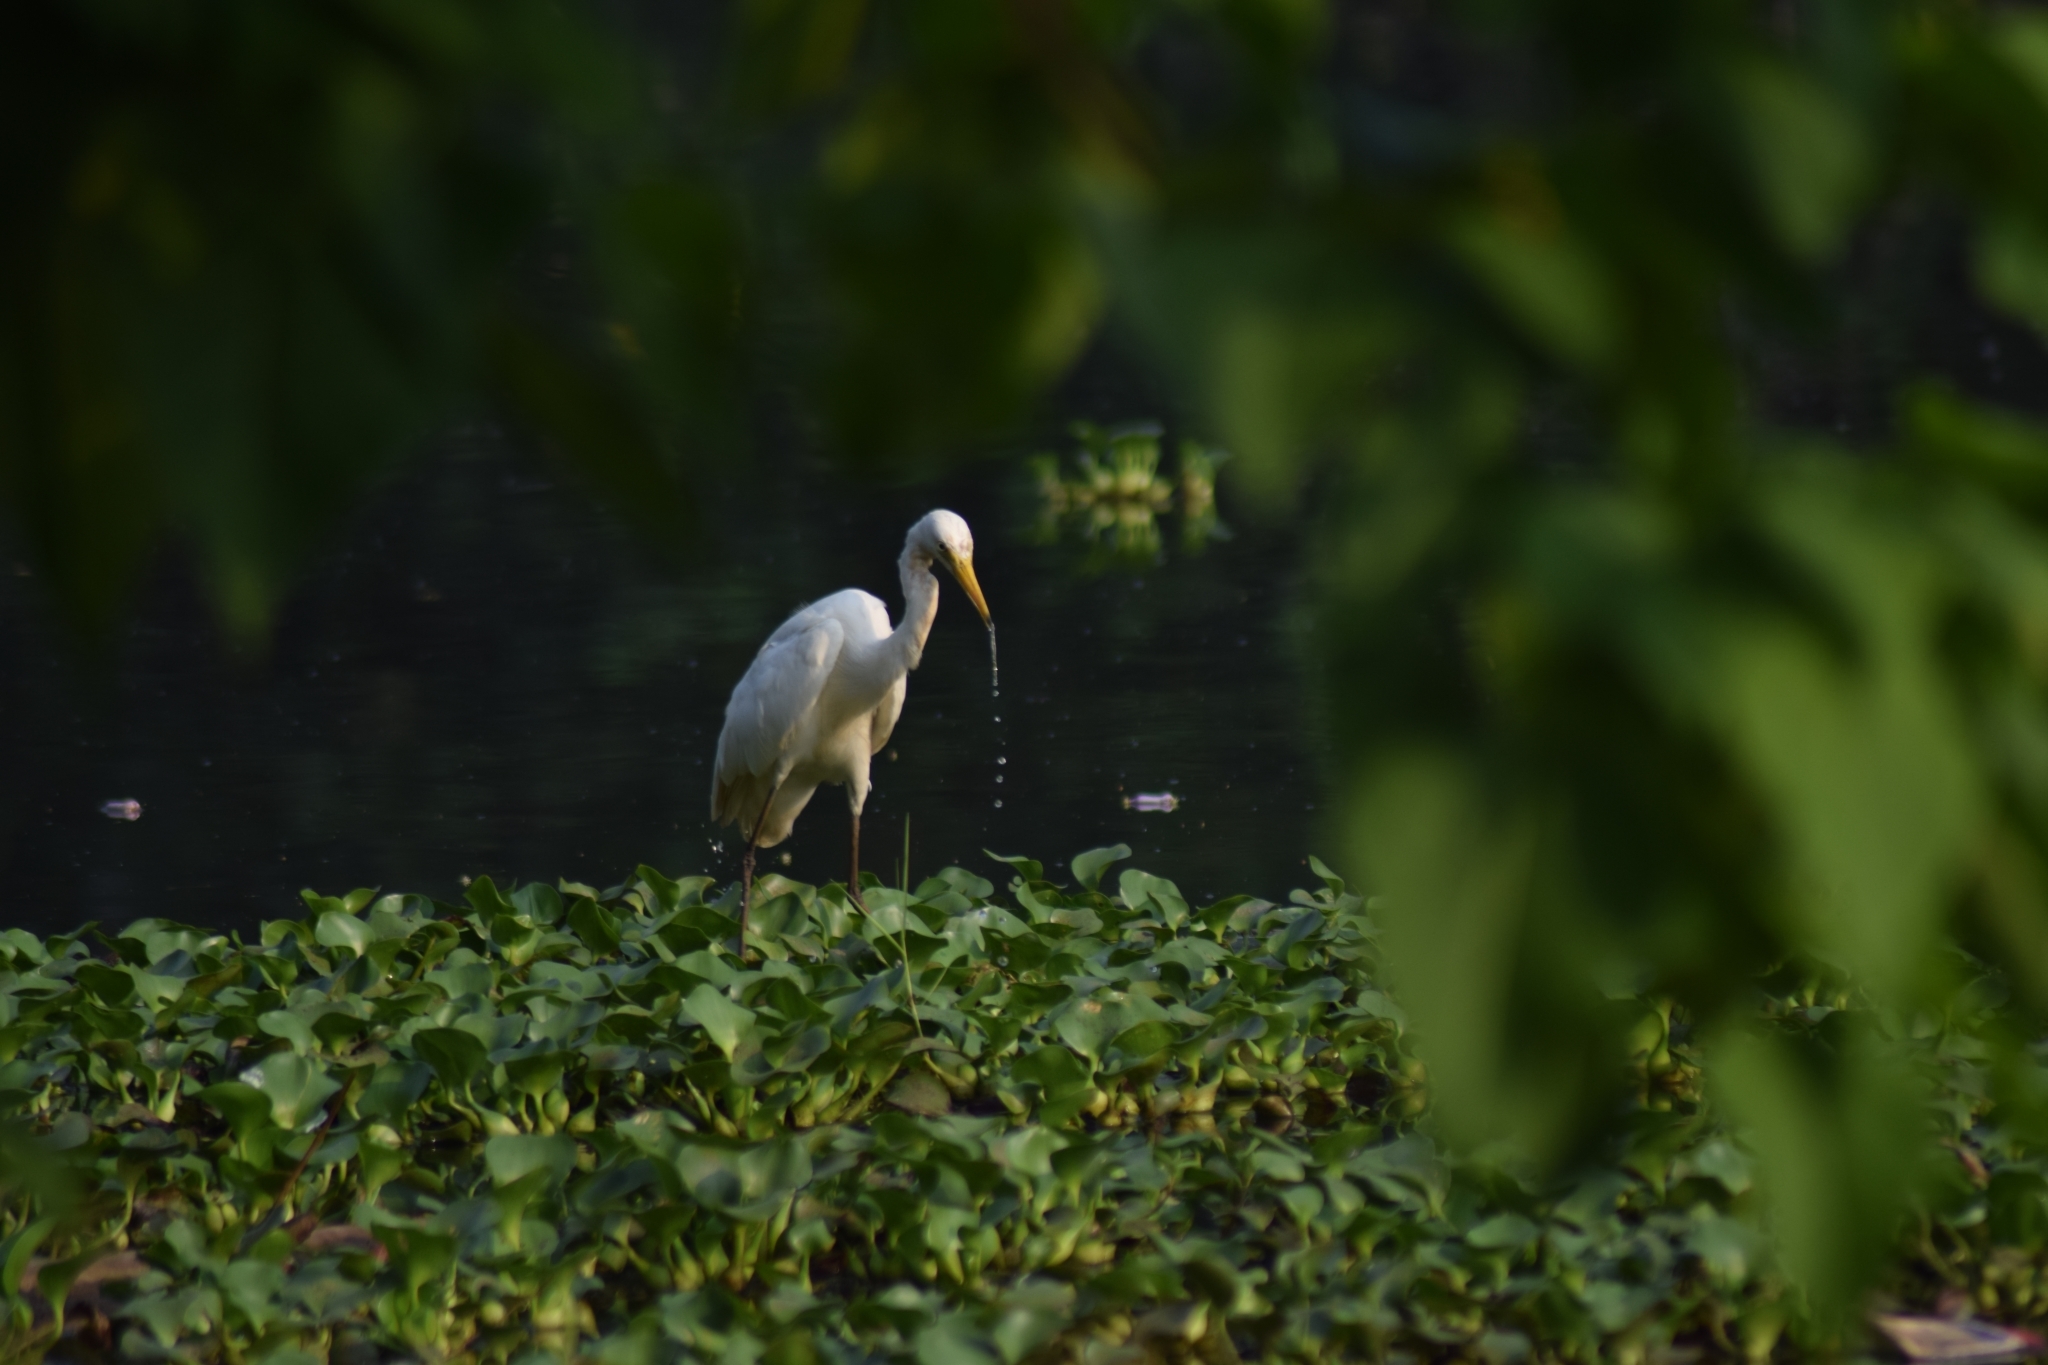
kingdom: Animalia
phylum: Chordata
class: Aves
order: Pelecaniformes
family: Ardeidae
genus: Egretta
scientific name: Egretta intermedia
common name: Intermediate egret
